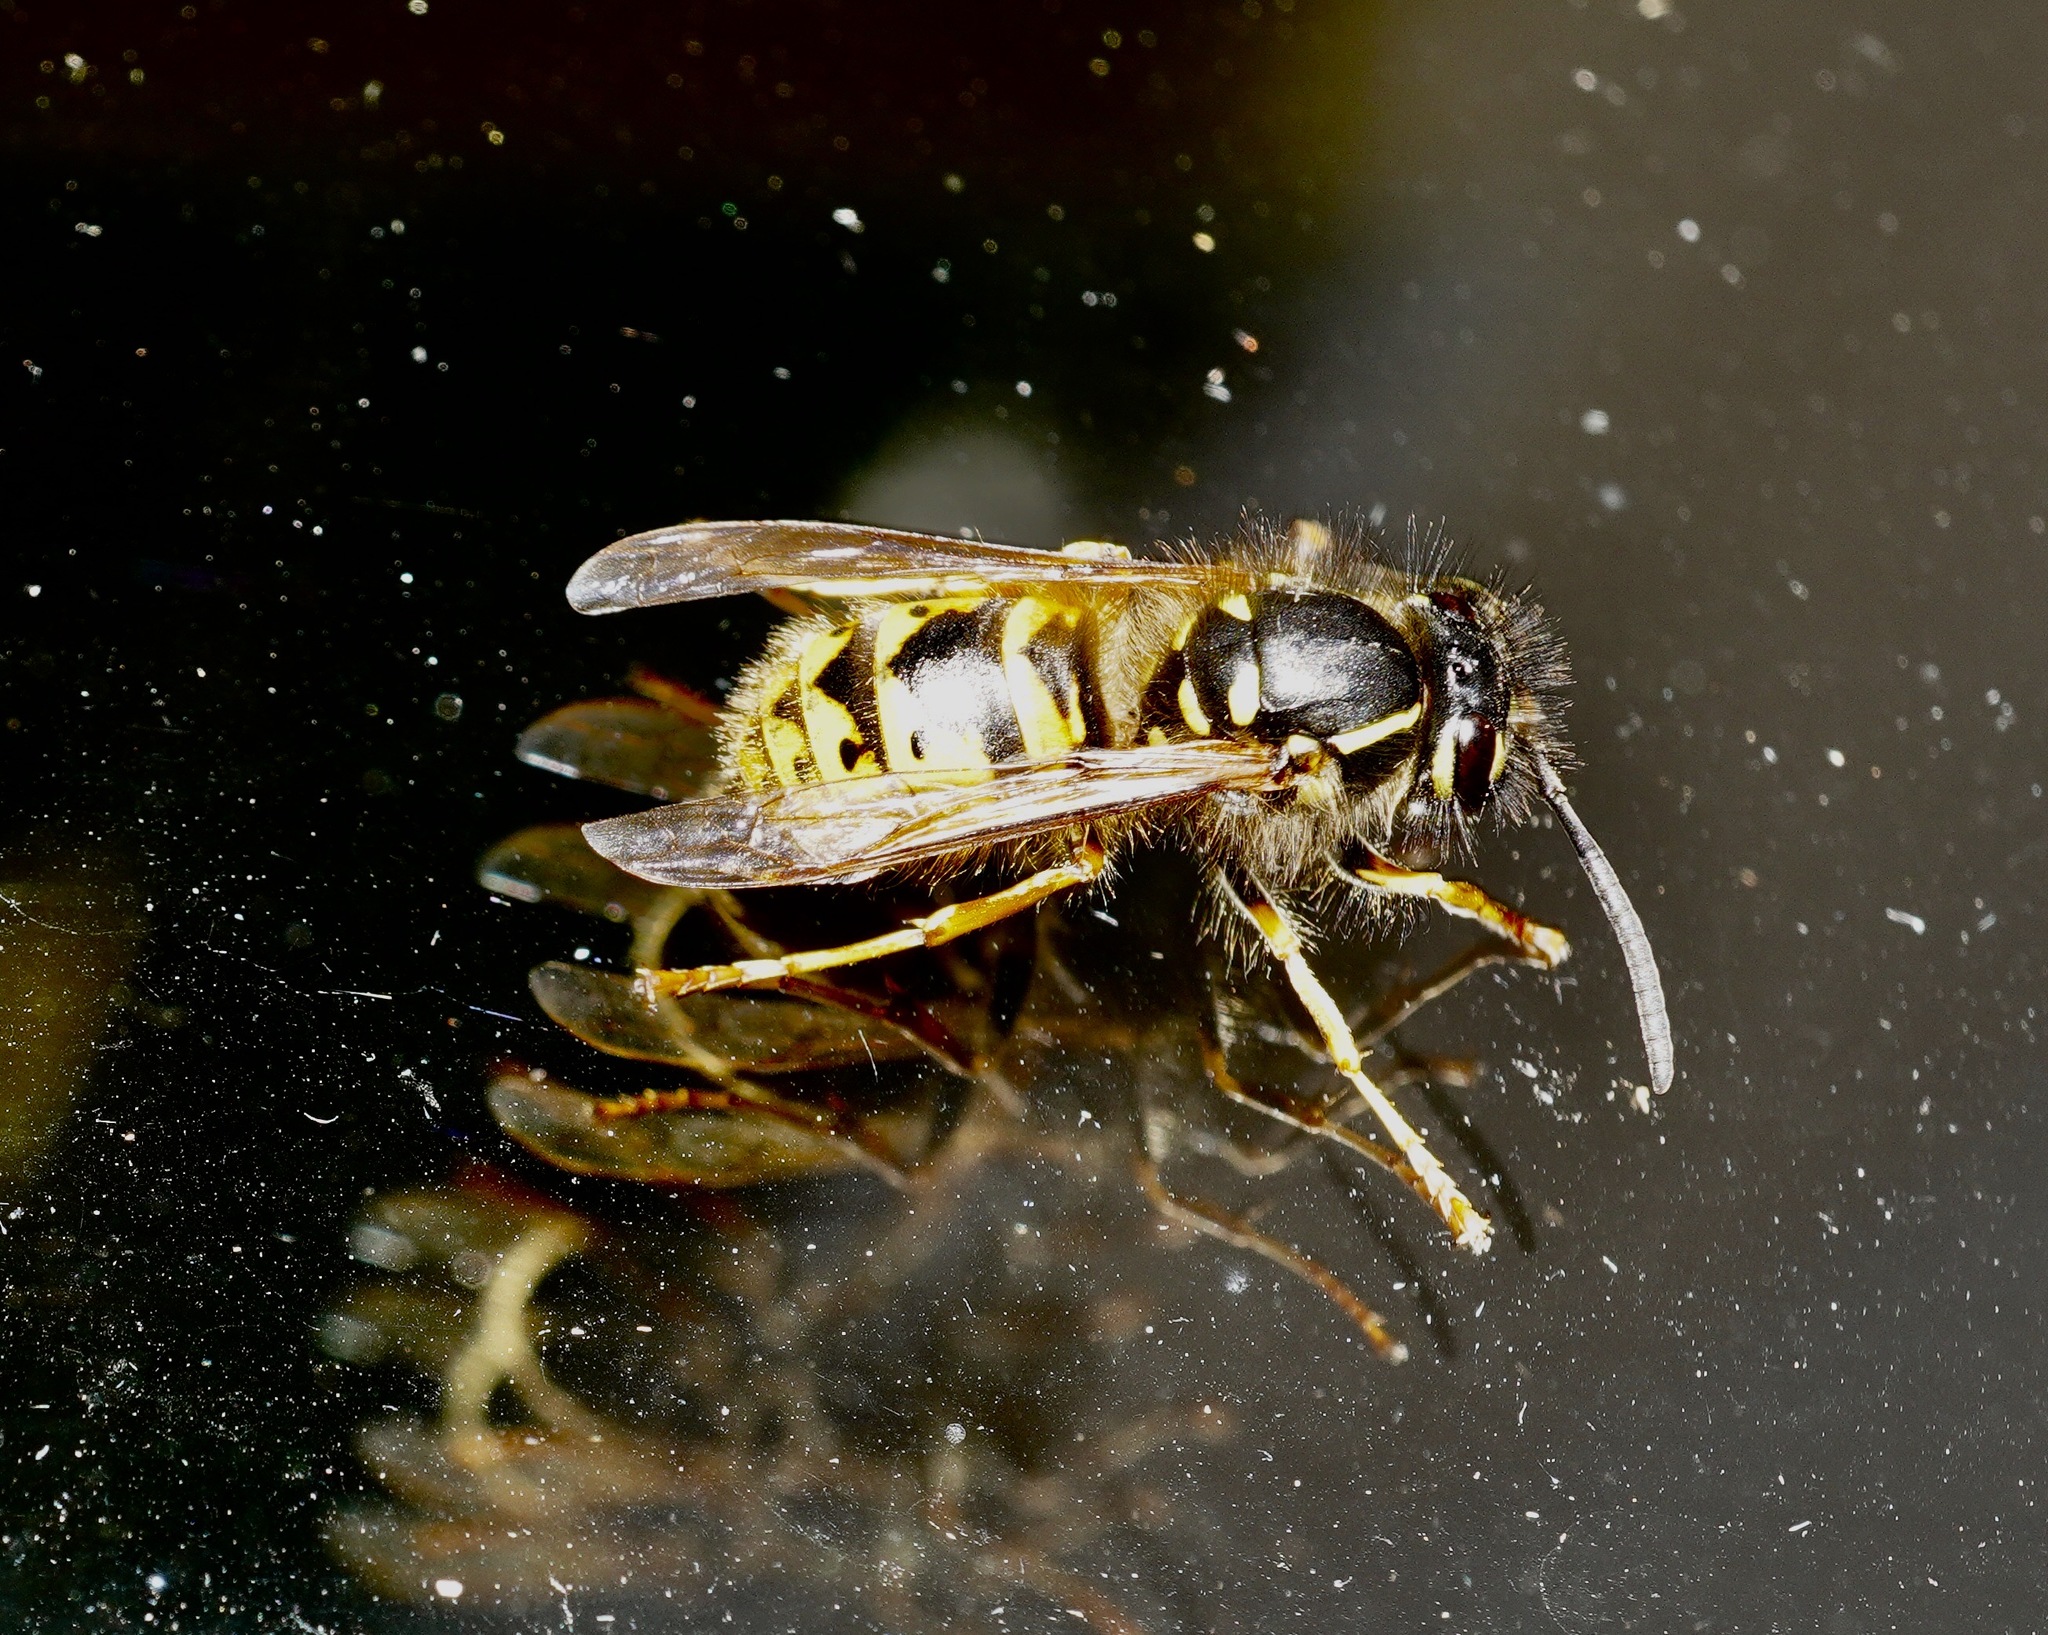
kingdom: Animalia
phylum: Arthropoda
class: Insecta
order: Hymenoptera
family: Vespidae
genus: Vespula
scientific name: Vespula vulgaris
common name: Common wasp
